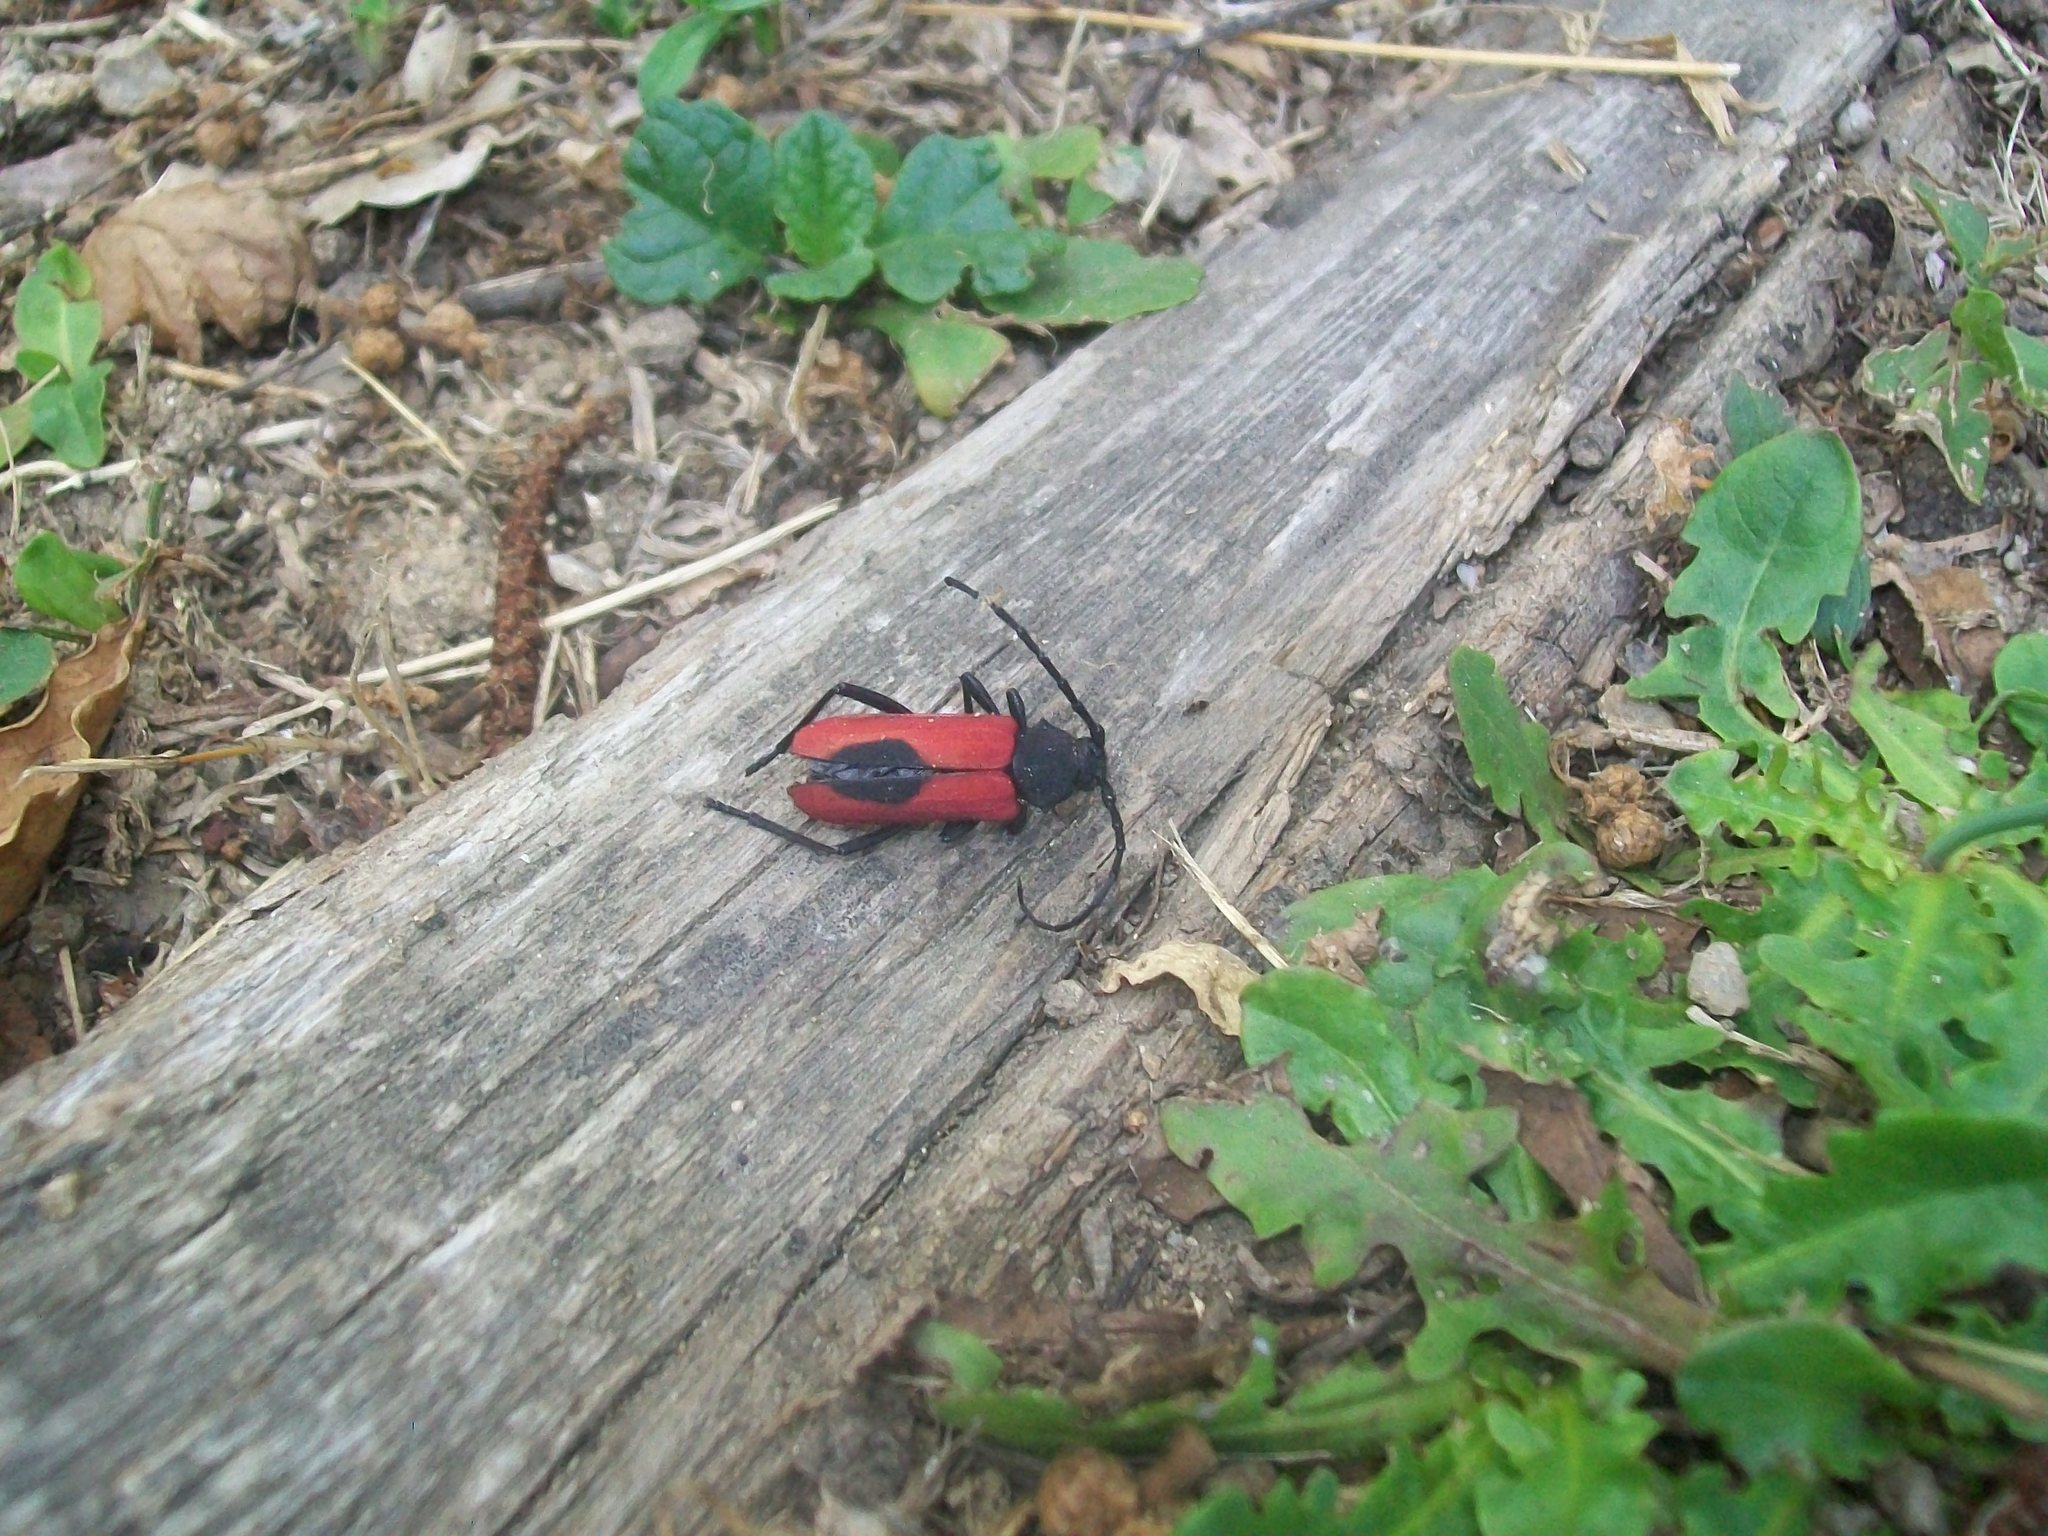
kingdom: Animalia
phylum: Arthropoda
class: Insecta
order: Coleoptera
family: Cerambycidae
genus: Purpuricenus
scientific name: Purpuricenus kaehleri
